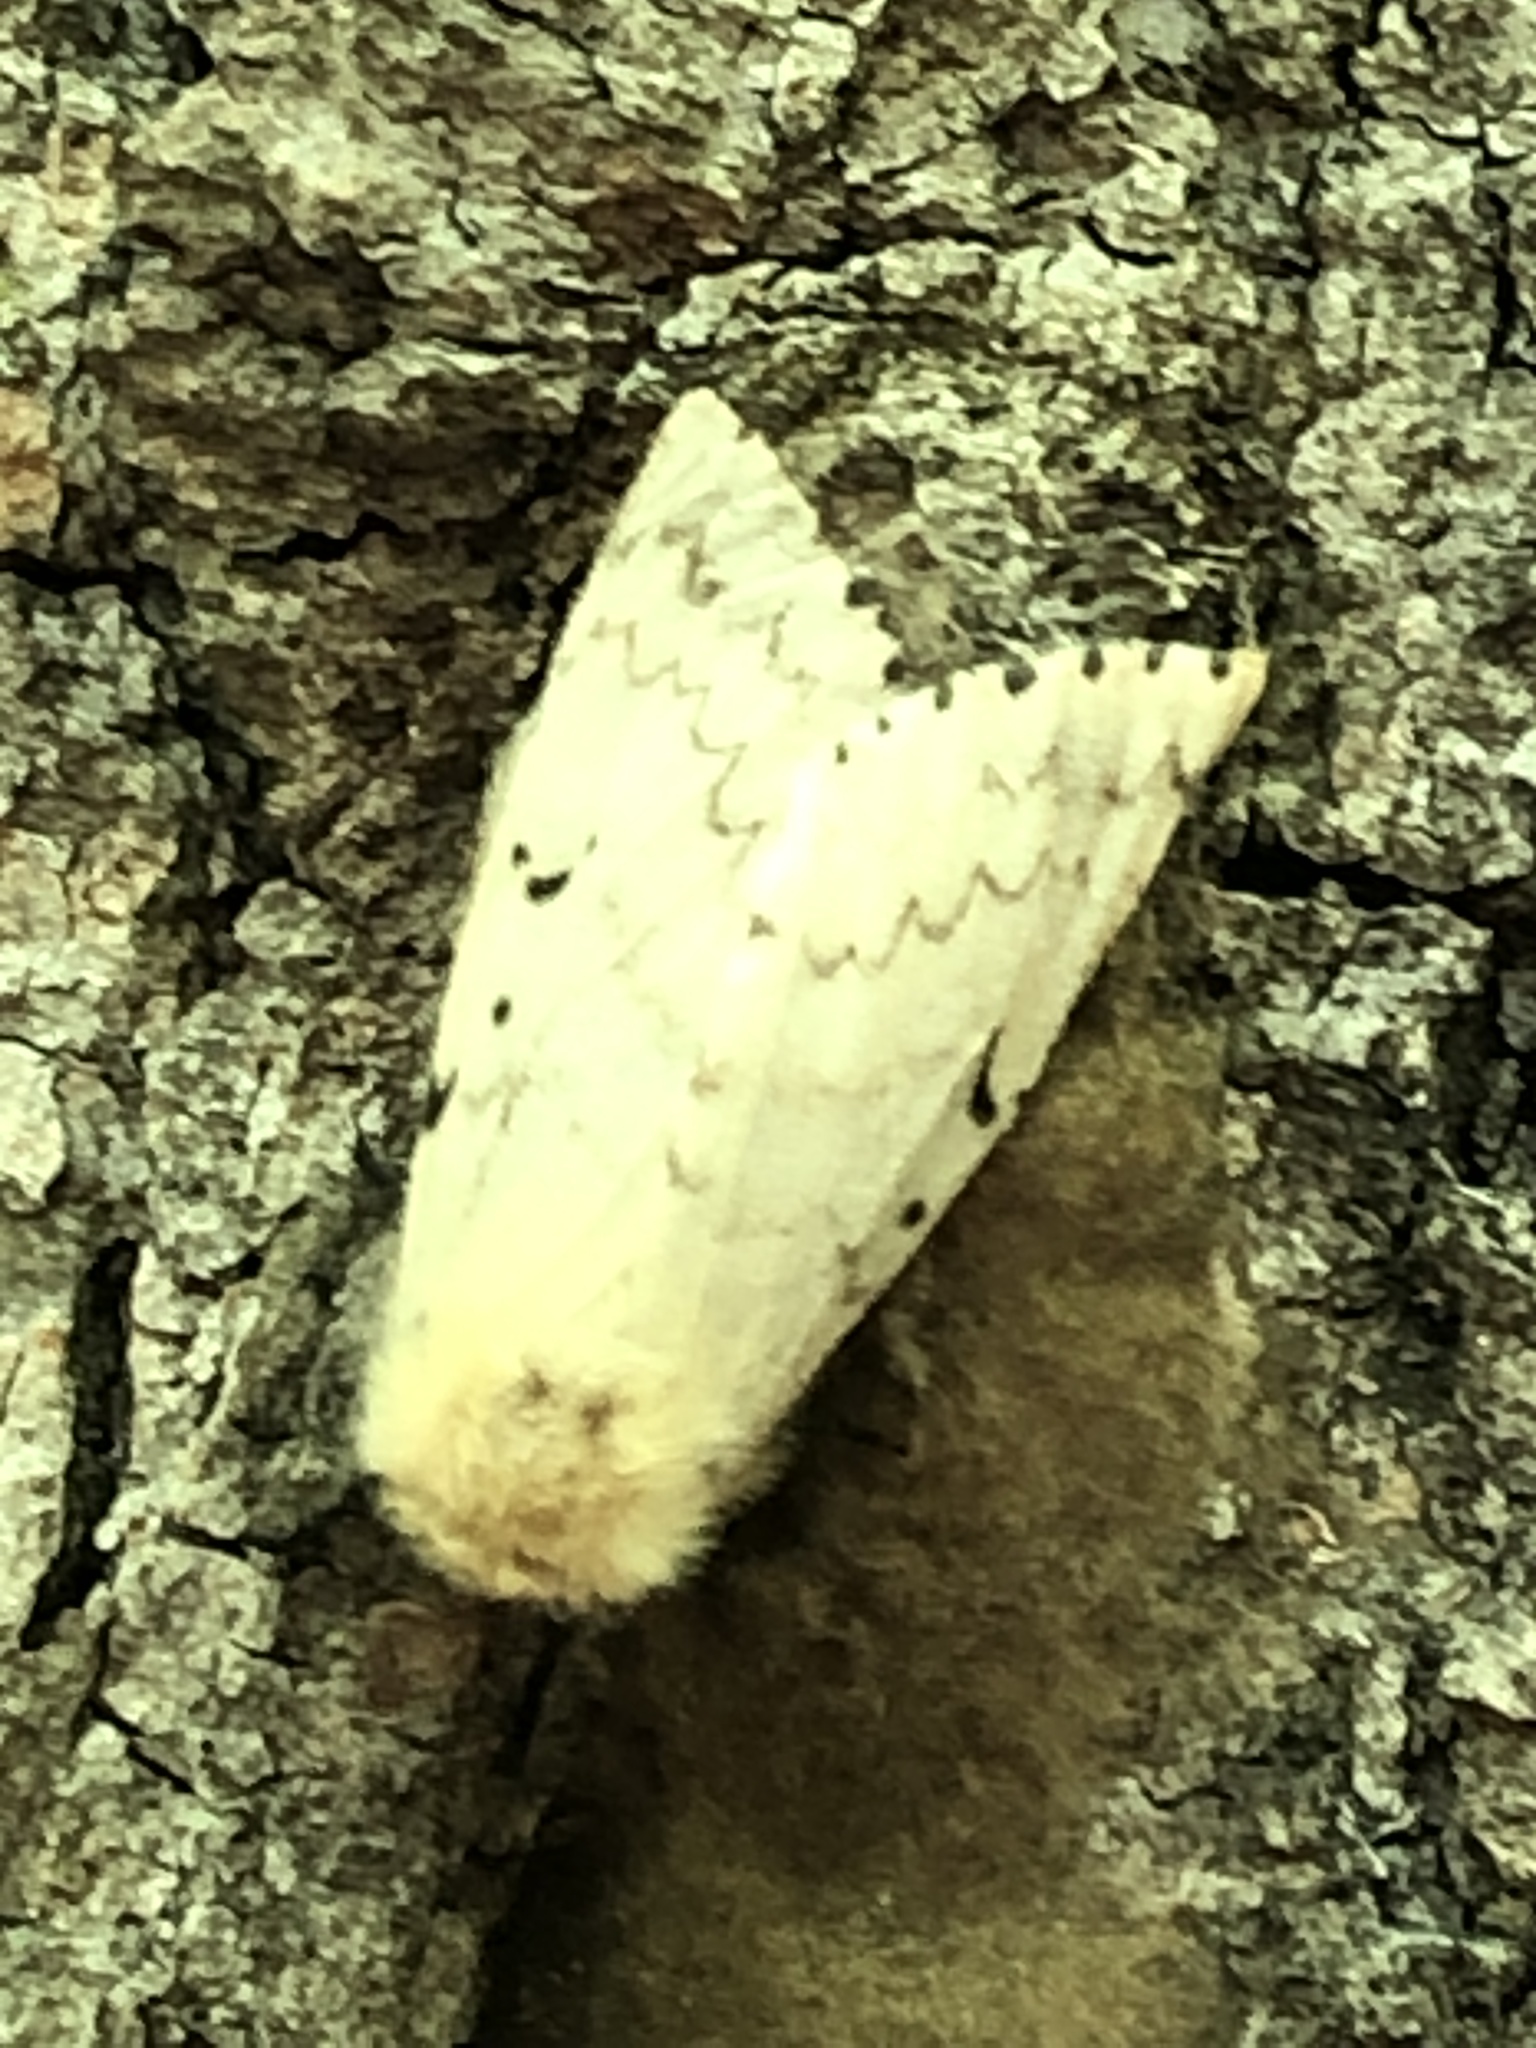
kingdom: Animalia
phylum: Arthropoda
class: Insecta
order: Lepidoptera
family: Erebidae
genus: Lymantria
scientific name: Lymantria dispar
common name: Gypsy moth
